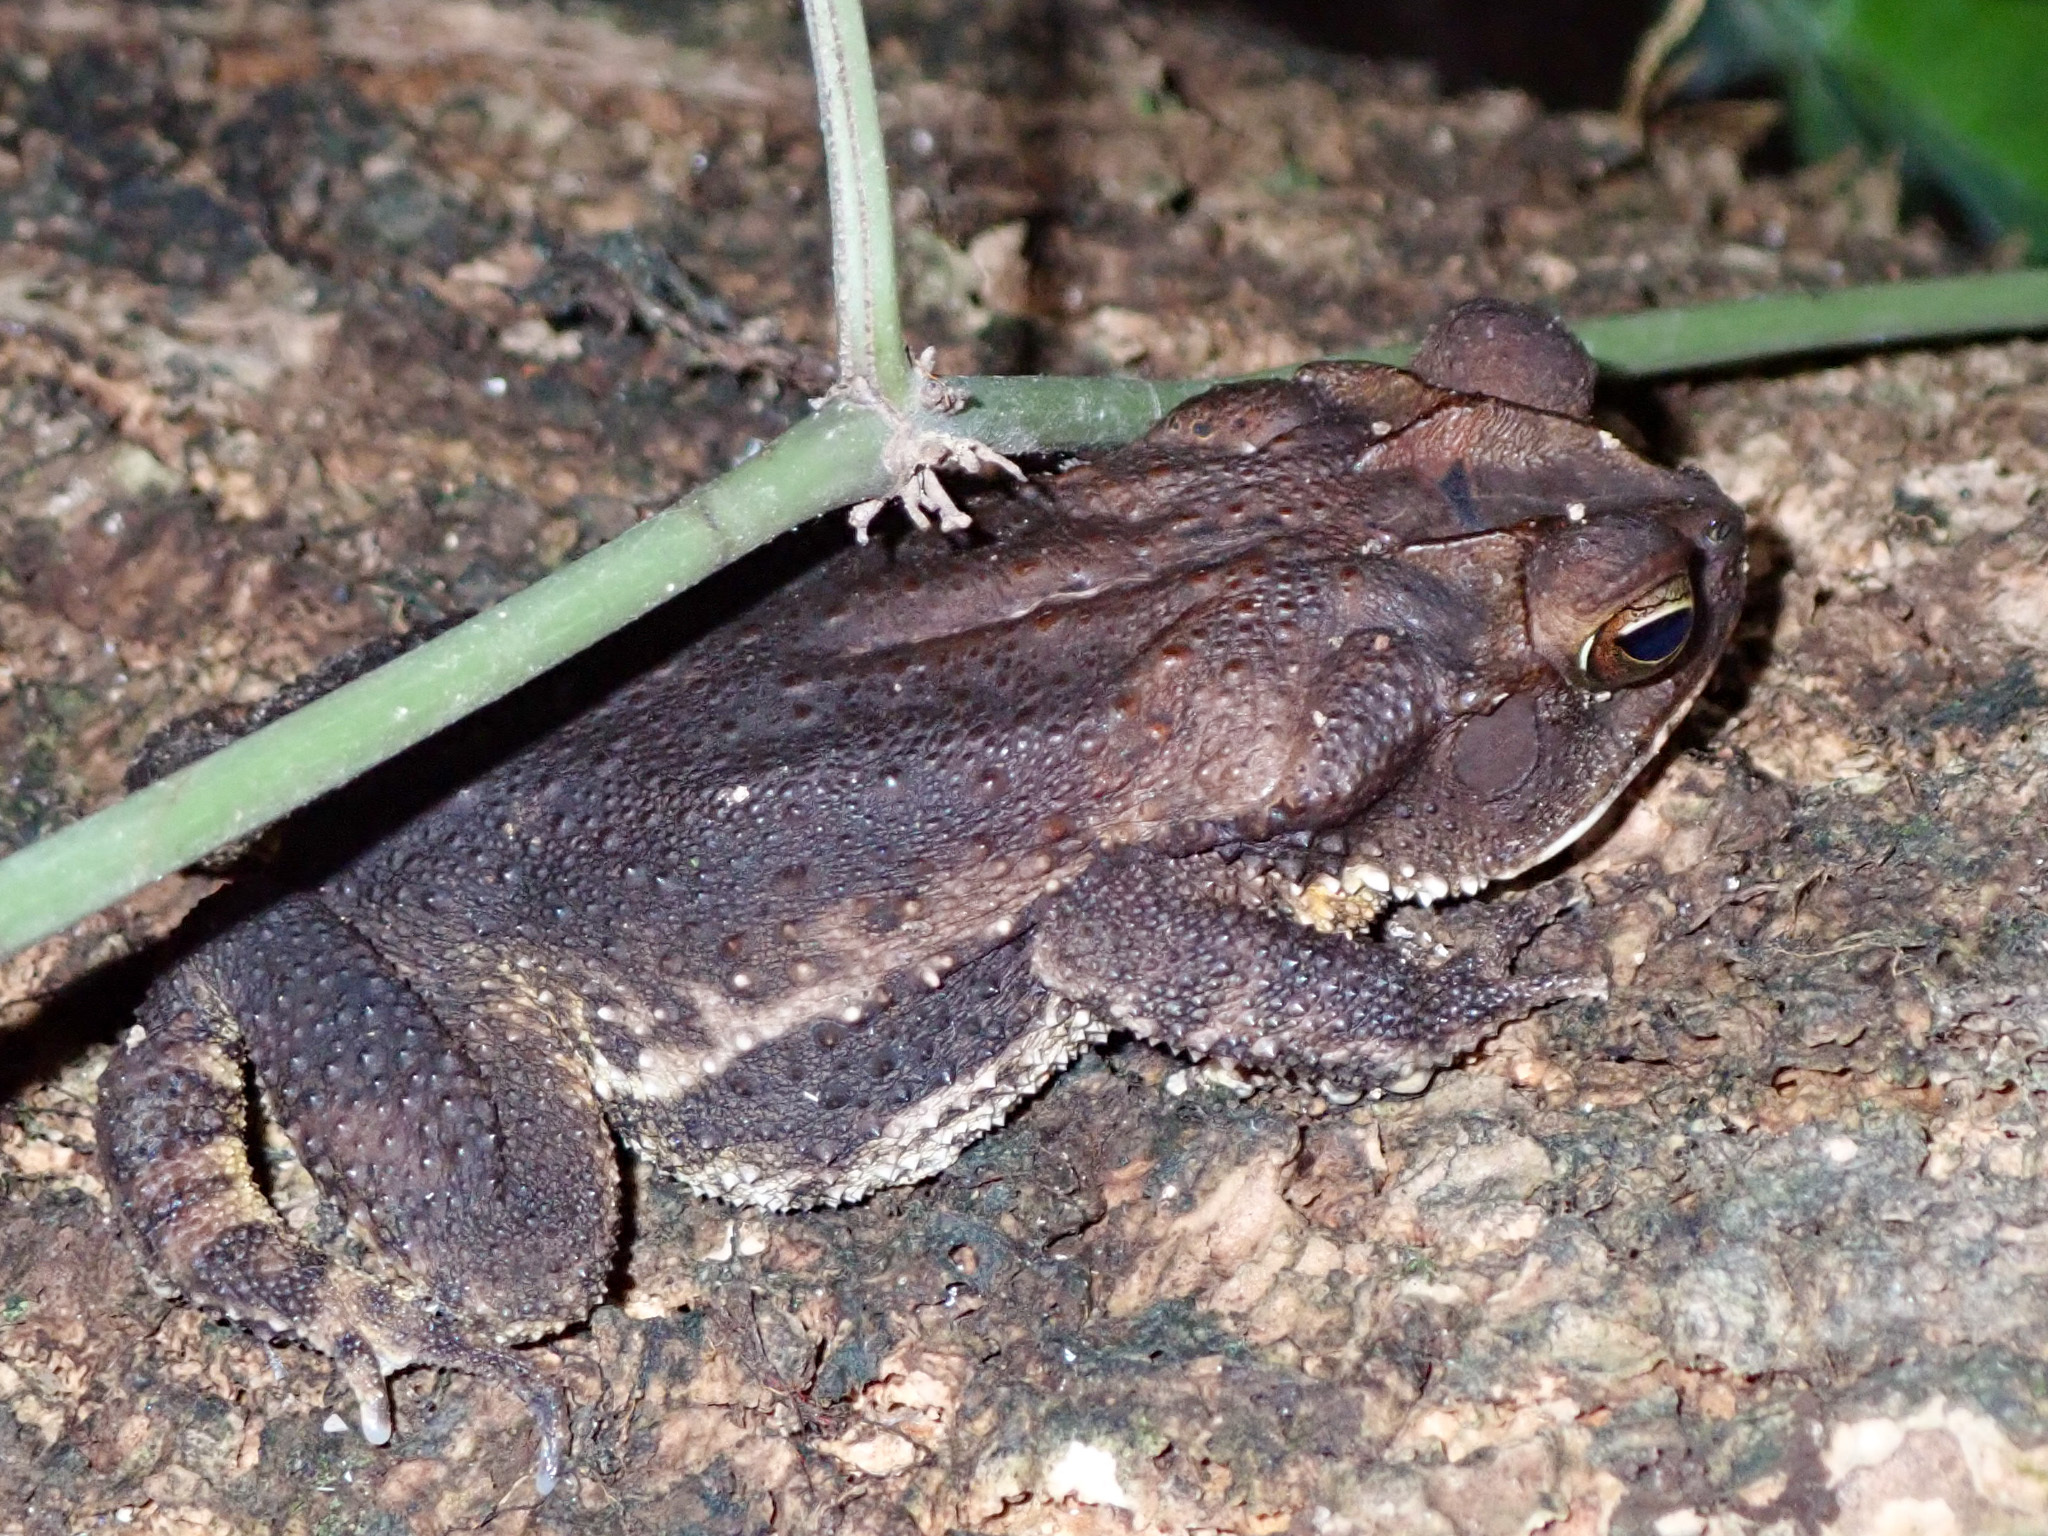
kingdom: Animalia
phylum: Chordata
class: Amphibia
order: Anura
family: Bufonidae
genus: Incilius
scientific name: Incilius valliceps
